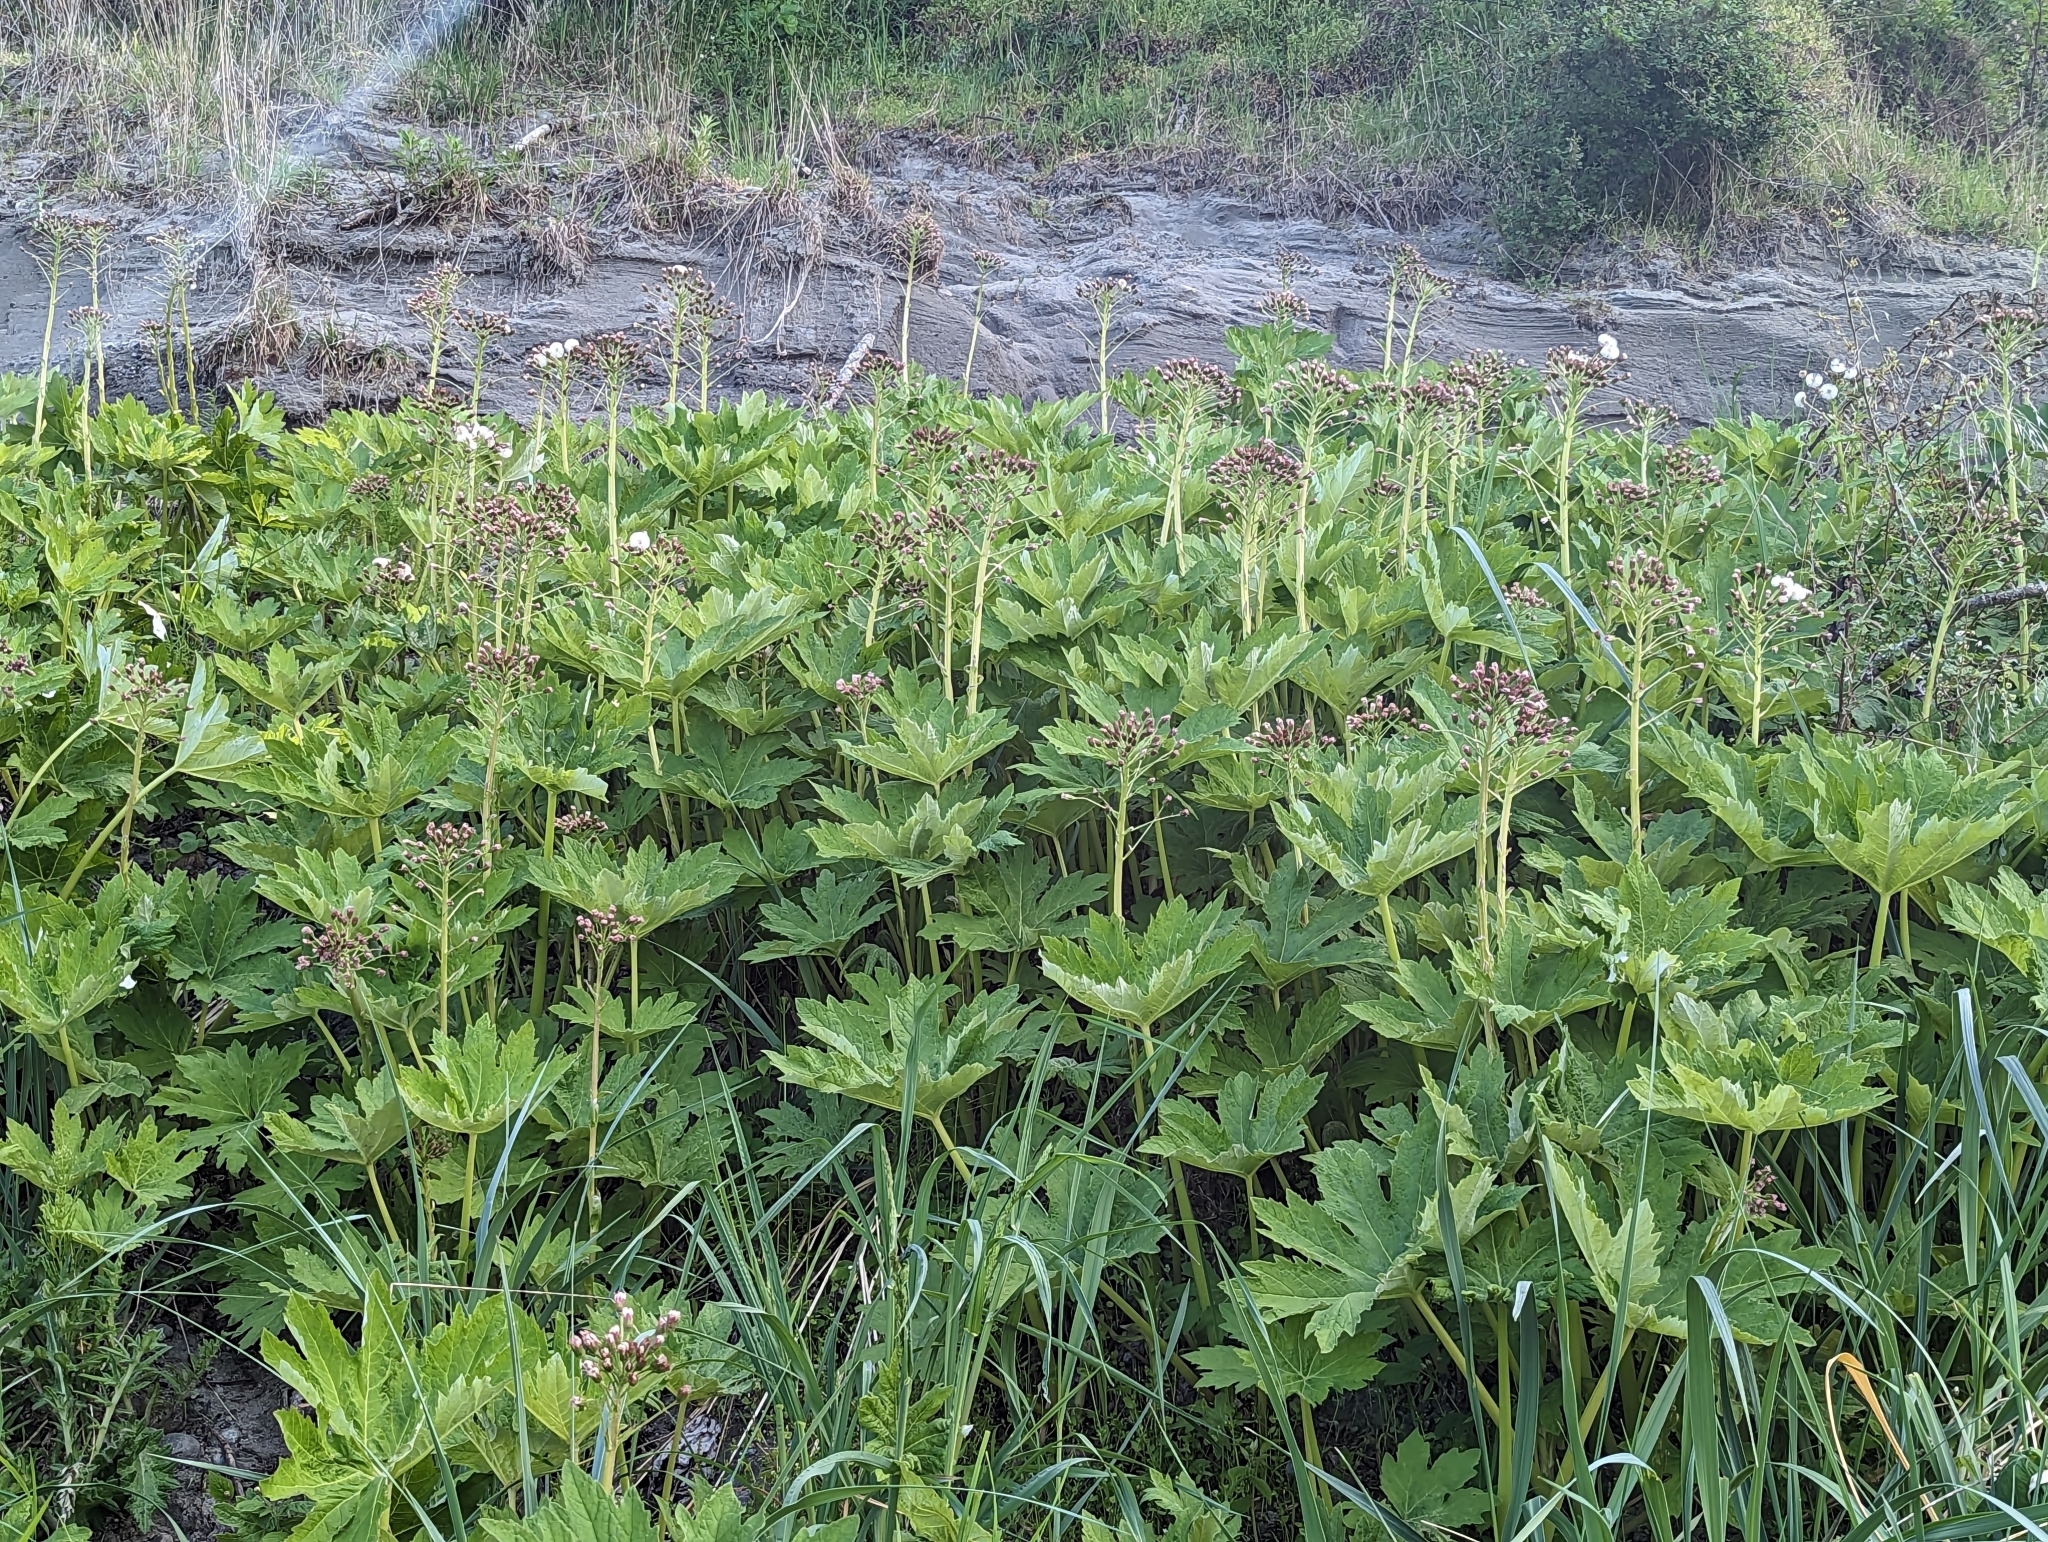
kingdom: Plantae
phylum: Tracheophyta
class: Magnoliopsida
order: Asterales
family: Asteraceae
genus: Petasites
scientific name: Petasites frigidus
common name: Arctic butterbur
